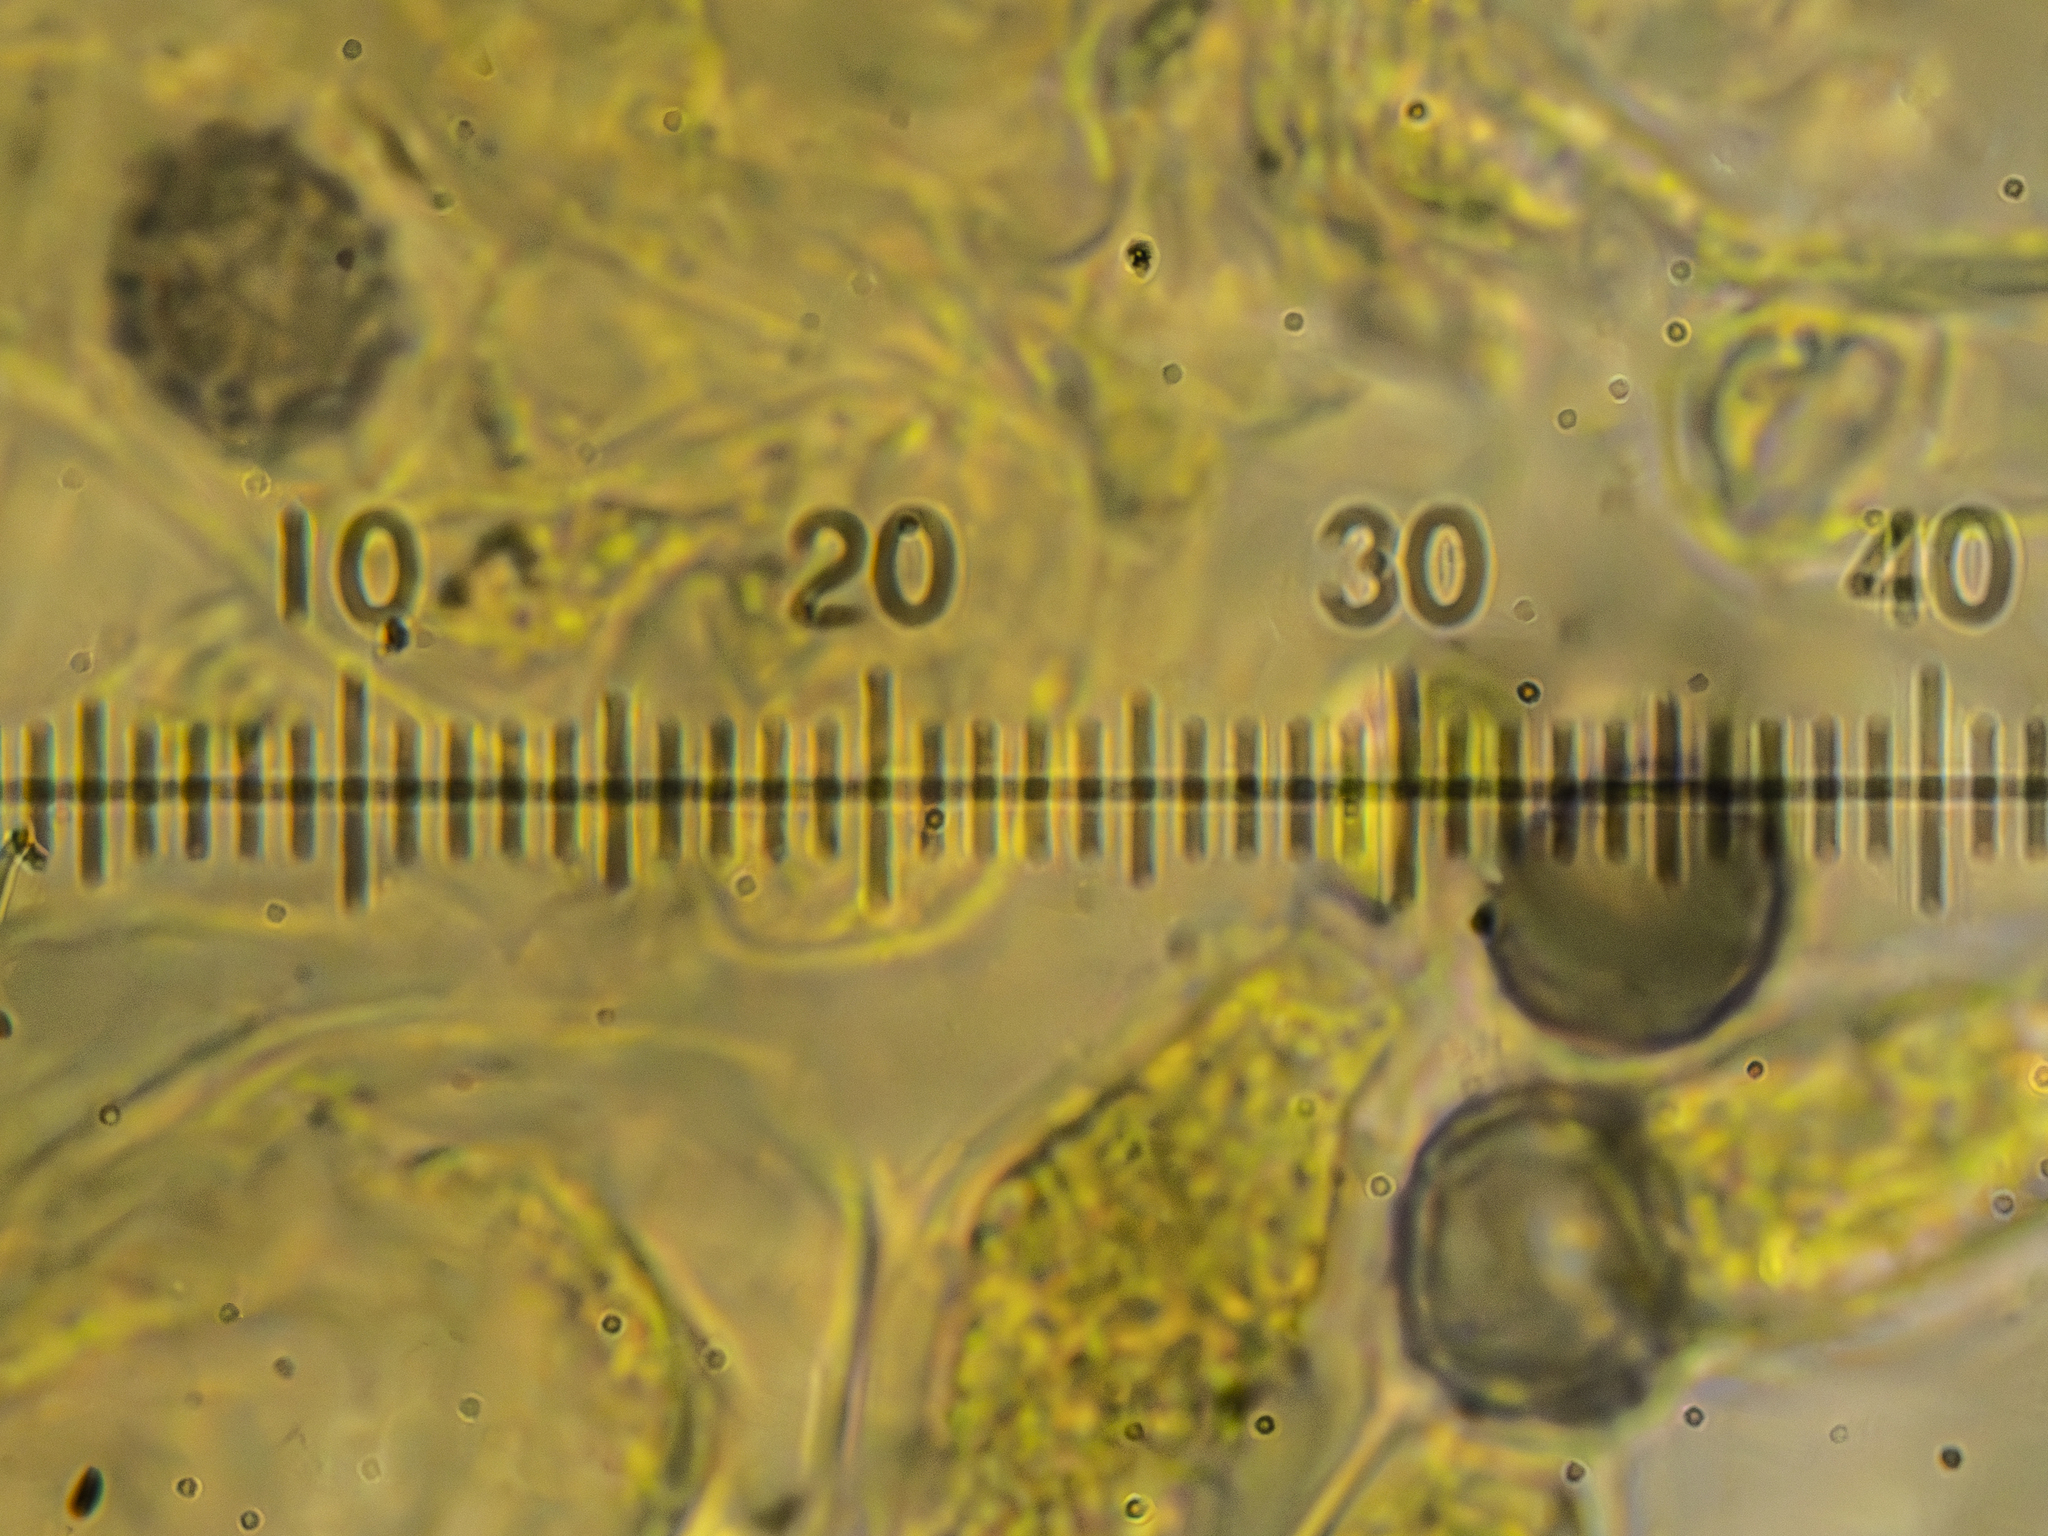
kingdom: Fungi
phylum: Basidiomycota
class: Agaricomycetes
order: Russulales
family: Russulaceae
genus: Russula
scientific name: Russula vesca
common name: Bare-toothed russula
